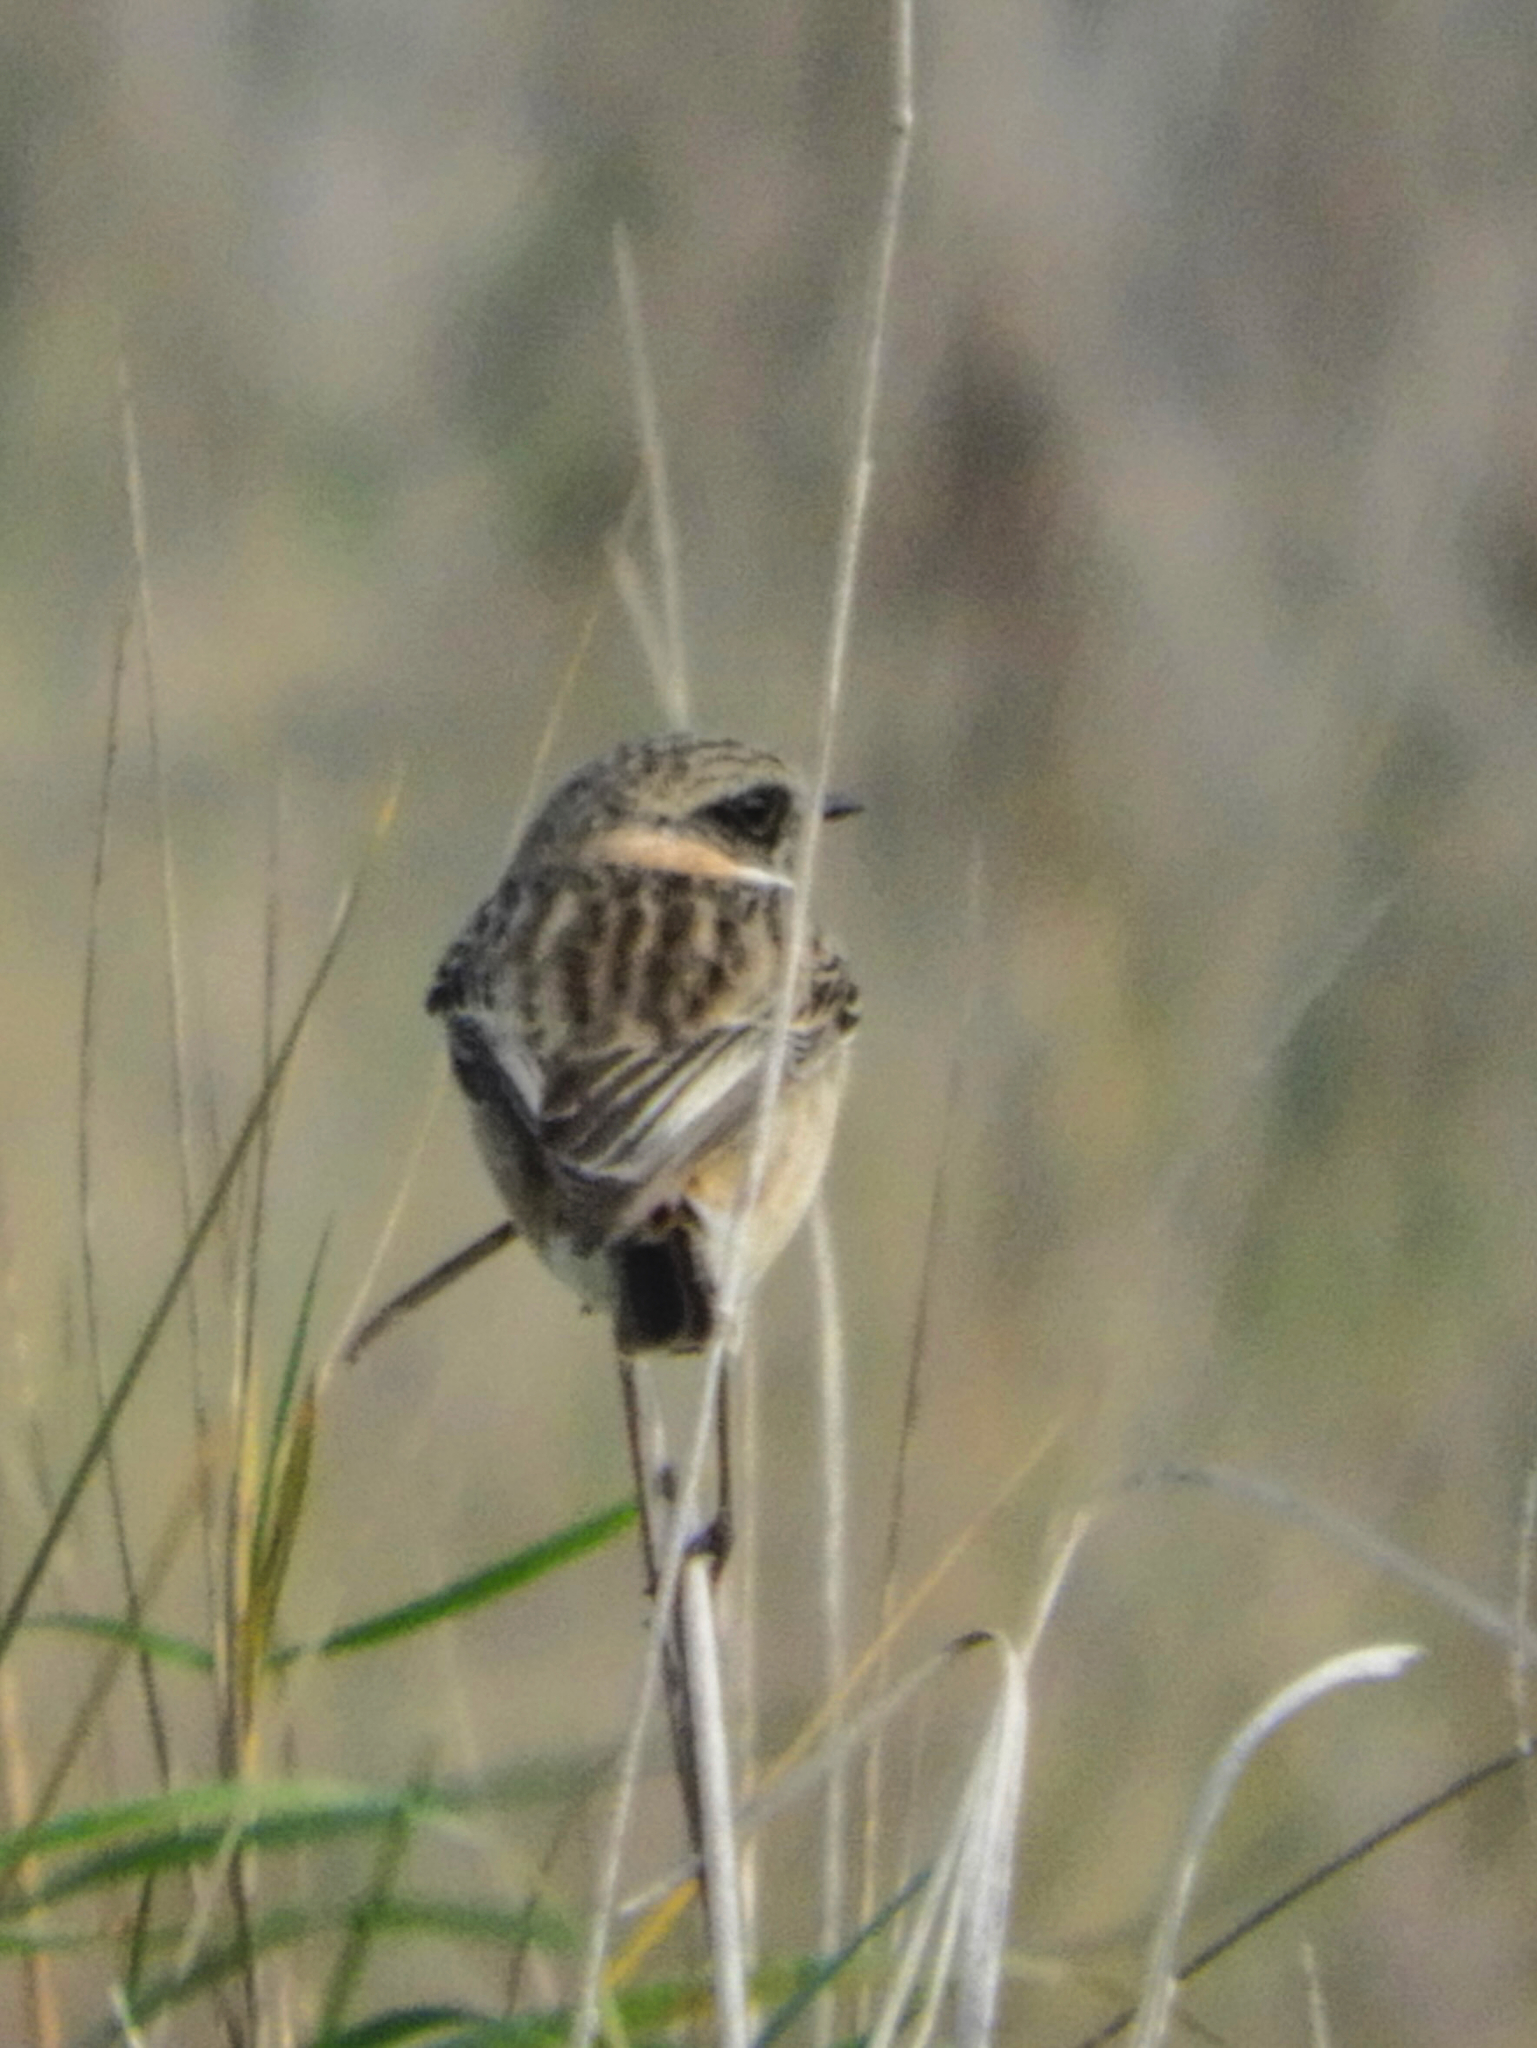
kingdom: Animalia
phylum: Chordata
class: Aves
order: Passeriformes
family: Muscicapidae
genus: Saxicola
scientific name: Saxicola rubicola
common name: European stonechat
